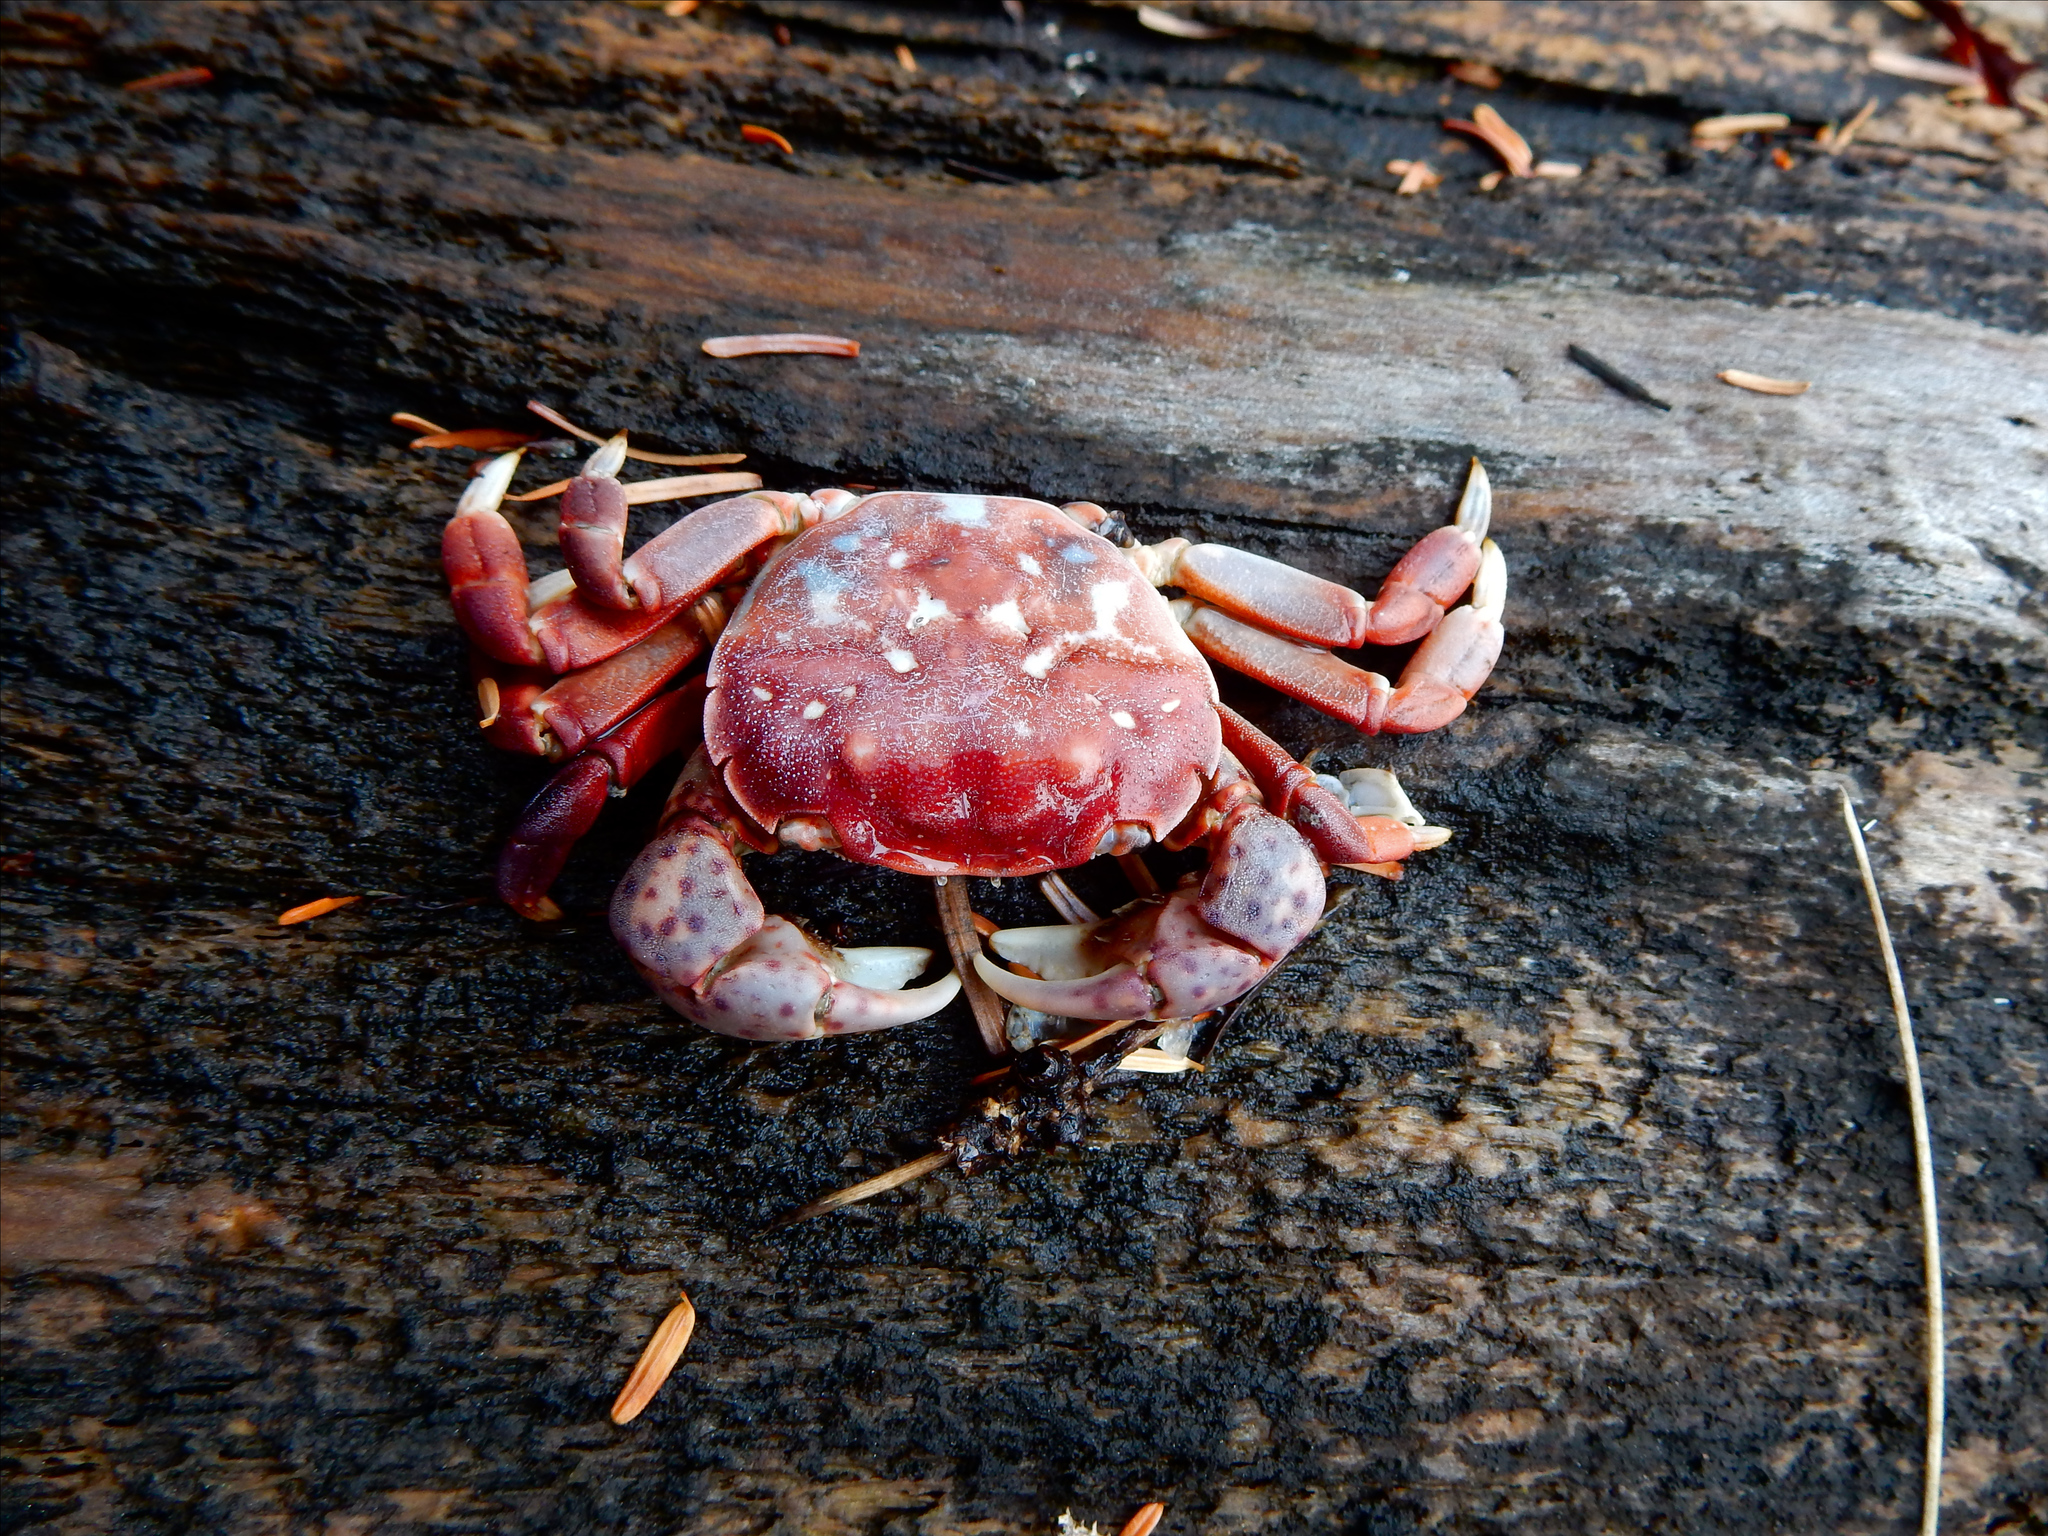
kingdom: Animalia
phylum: Arthropoda
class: Malacostraca
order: Decapoda
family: Varunidae
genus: Hemigrapsus
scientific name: Hemigrapsus nudus
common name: Purple shore crab
